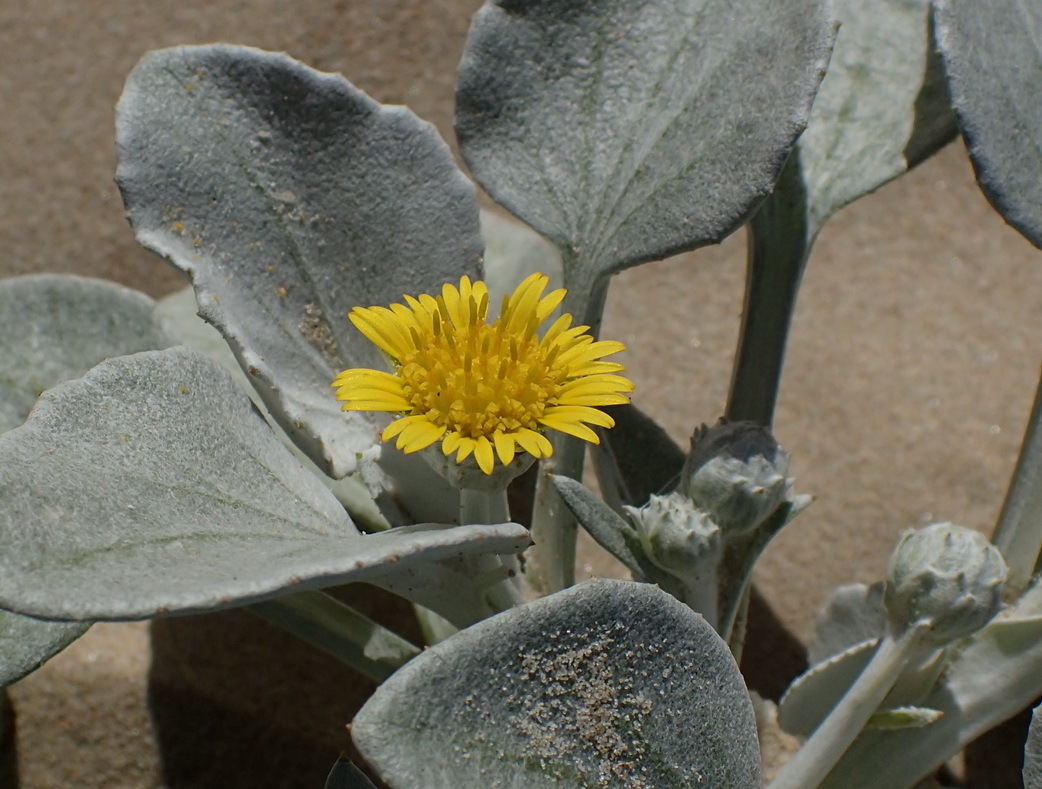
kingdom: Plantae
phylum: Tracheophyta
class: Magnoliopsida
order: Asterales
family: Asteraceae
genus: Arctotheca
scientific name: Arctotheca populifolia
